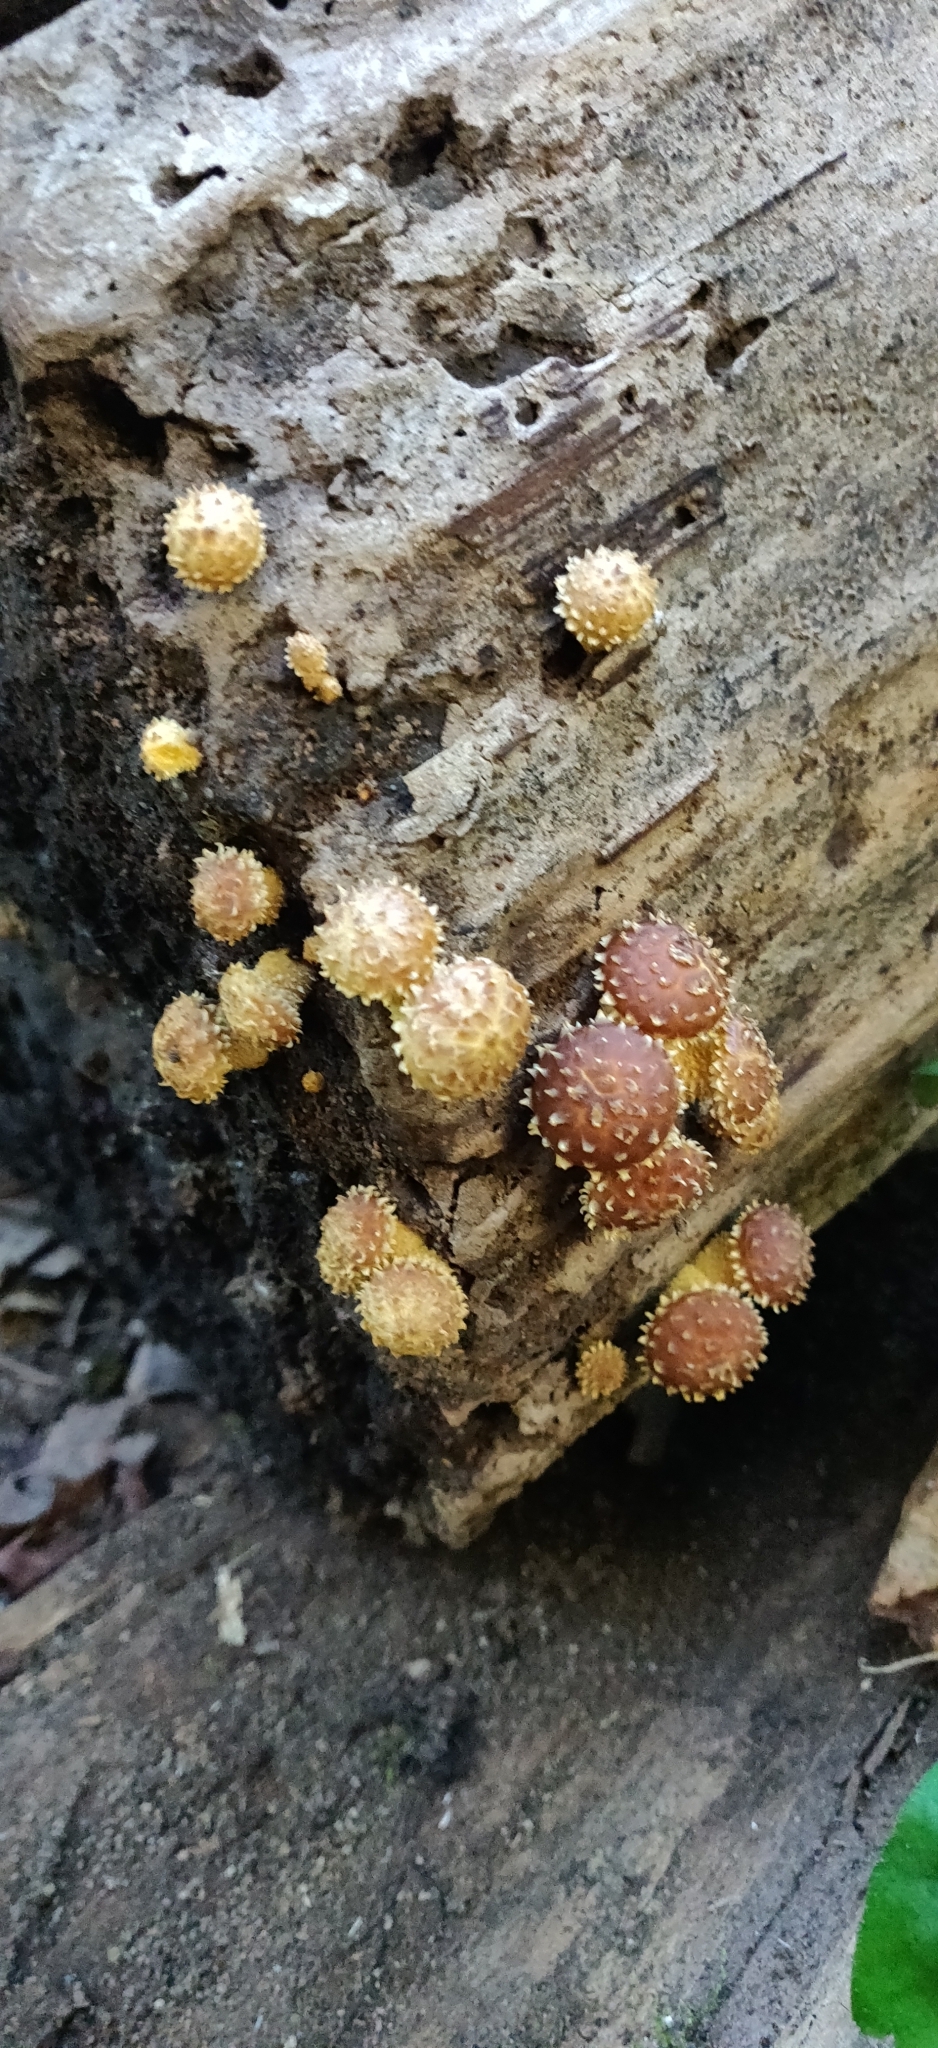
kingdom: Fungi
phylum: Basidiomycota
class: Agaricomycetes
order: Agaricales
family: Tubariaceae
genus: Hemistropharia
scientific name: Hemistropharia albocrenulata
